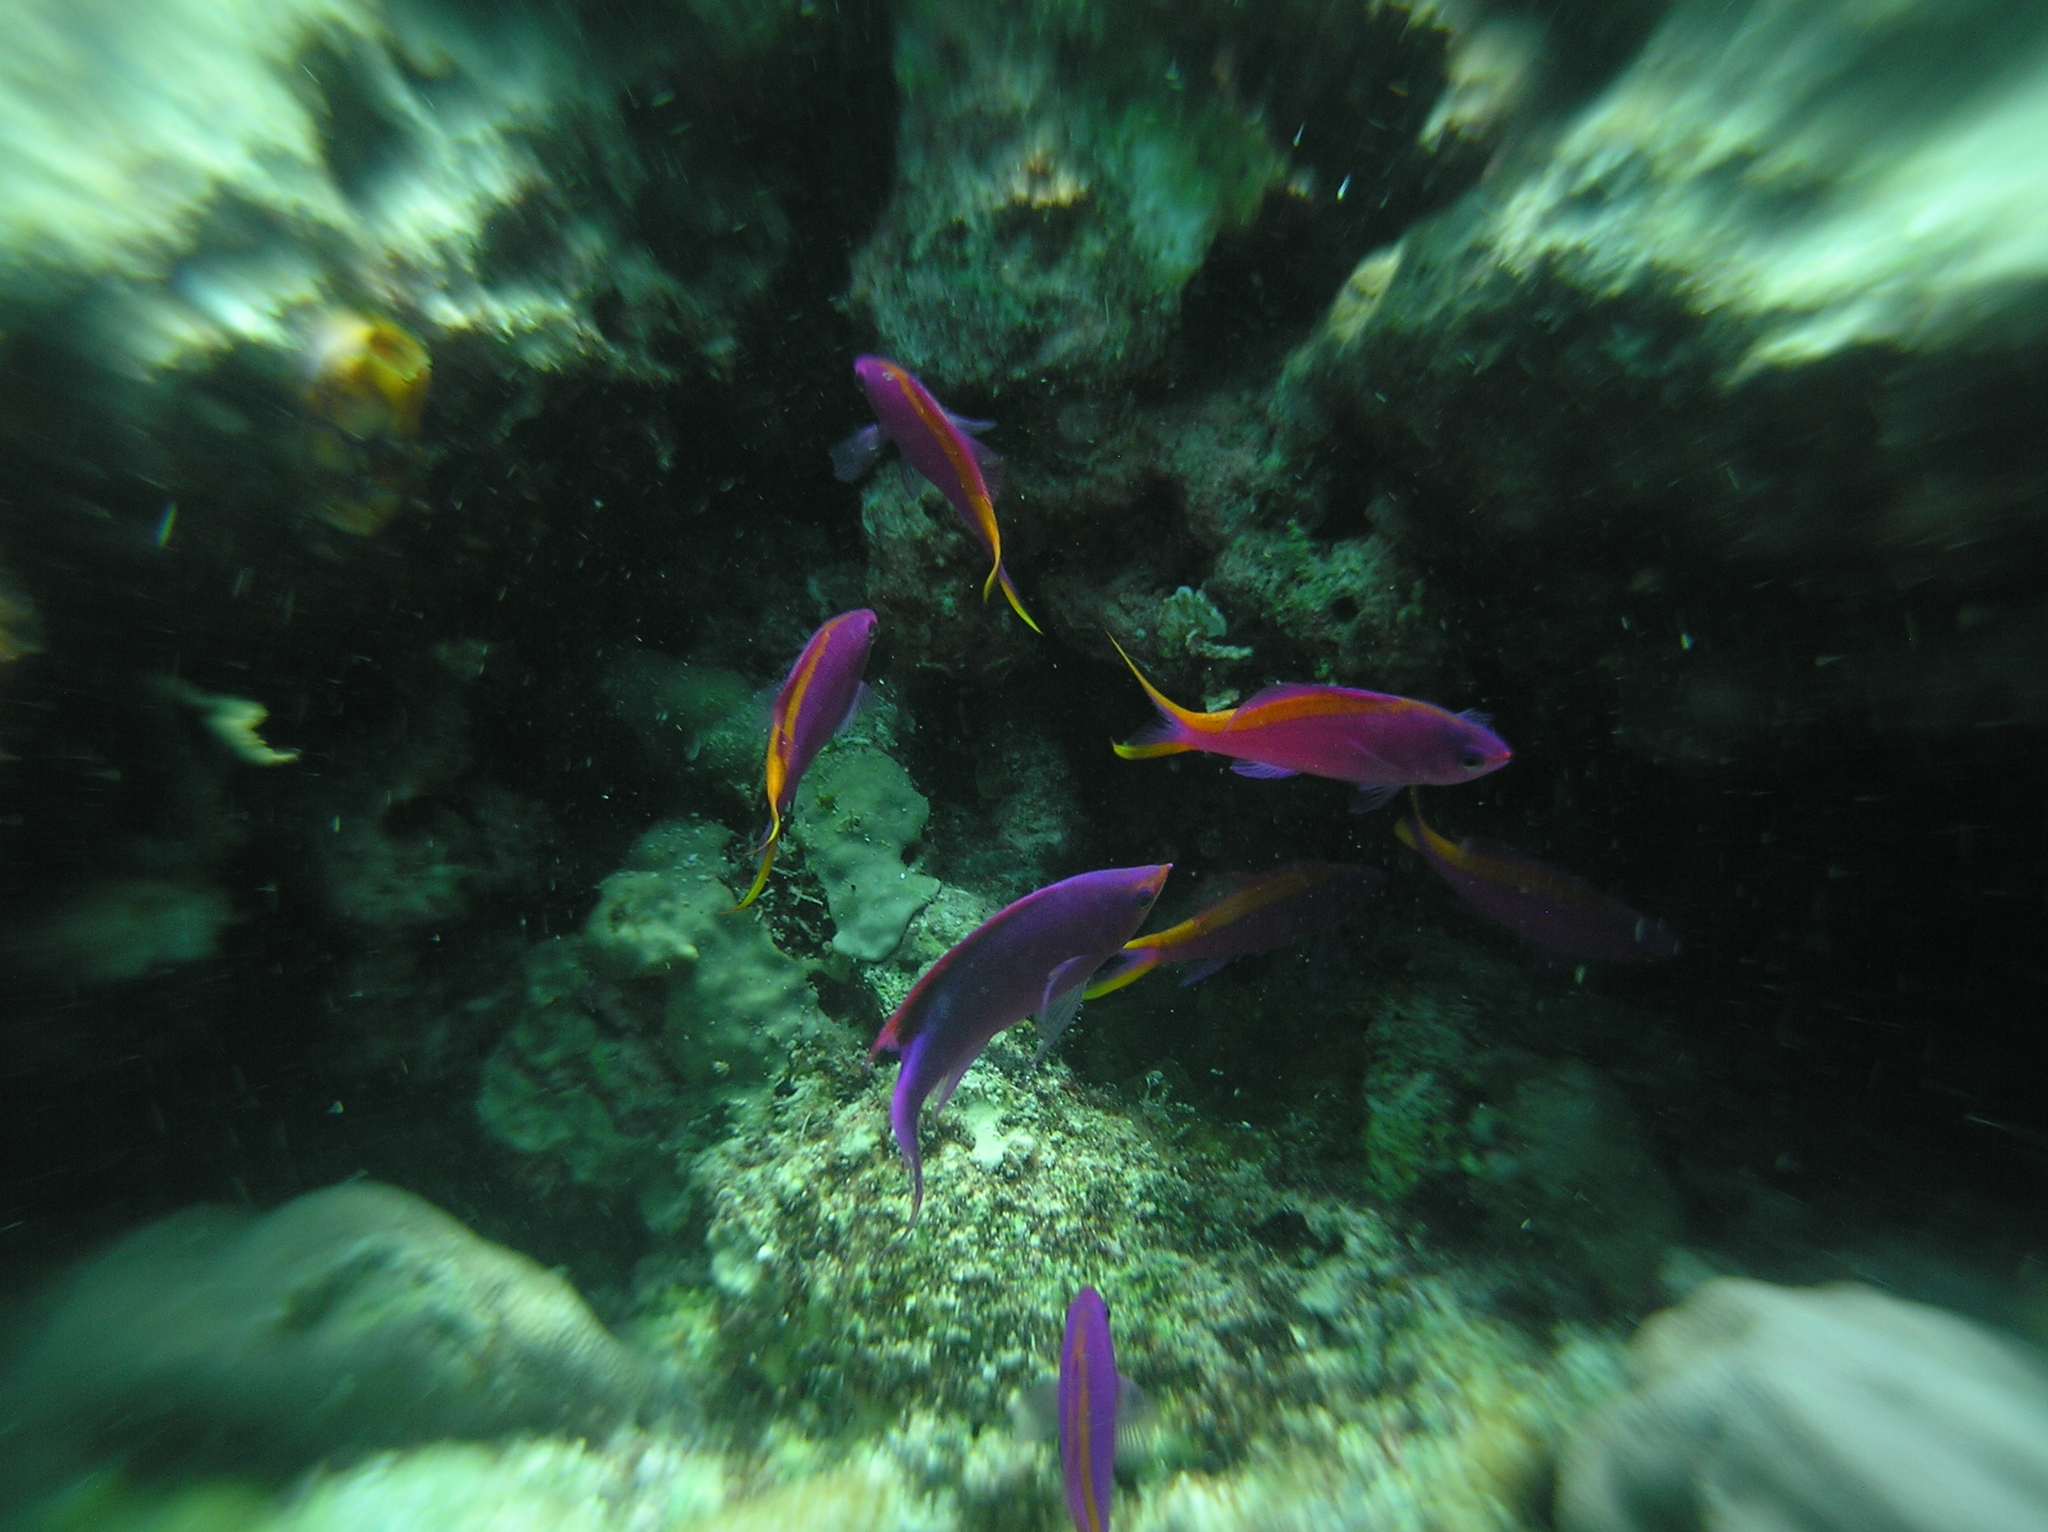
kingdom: Animalia
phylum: Chordata
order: Perciformes
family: Serranidae
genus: Pseudanthias
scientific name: Pseudanthias tuka
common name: Purple queen
